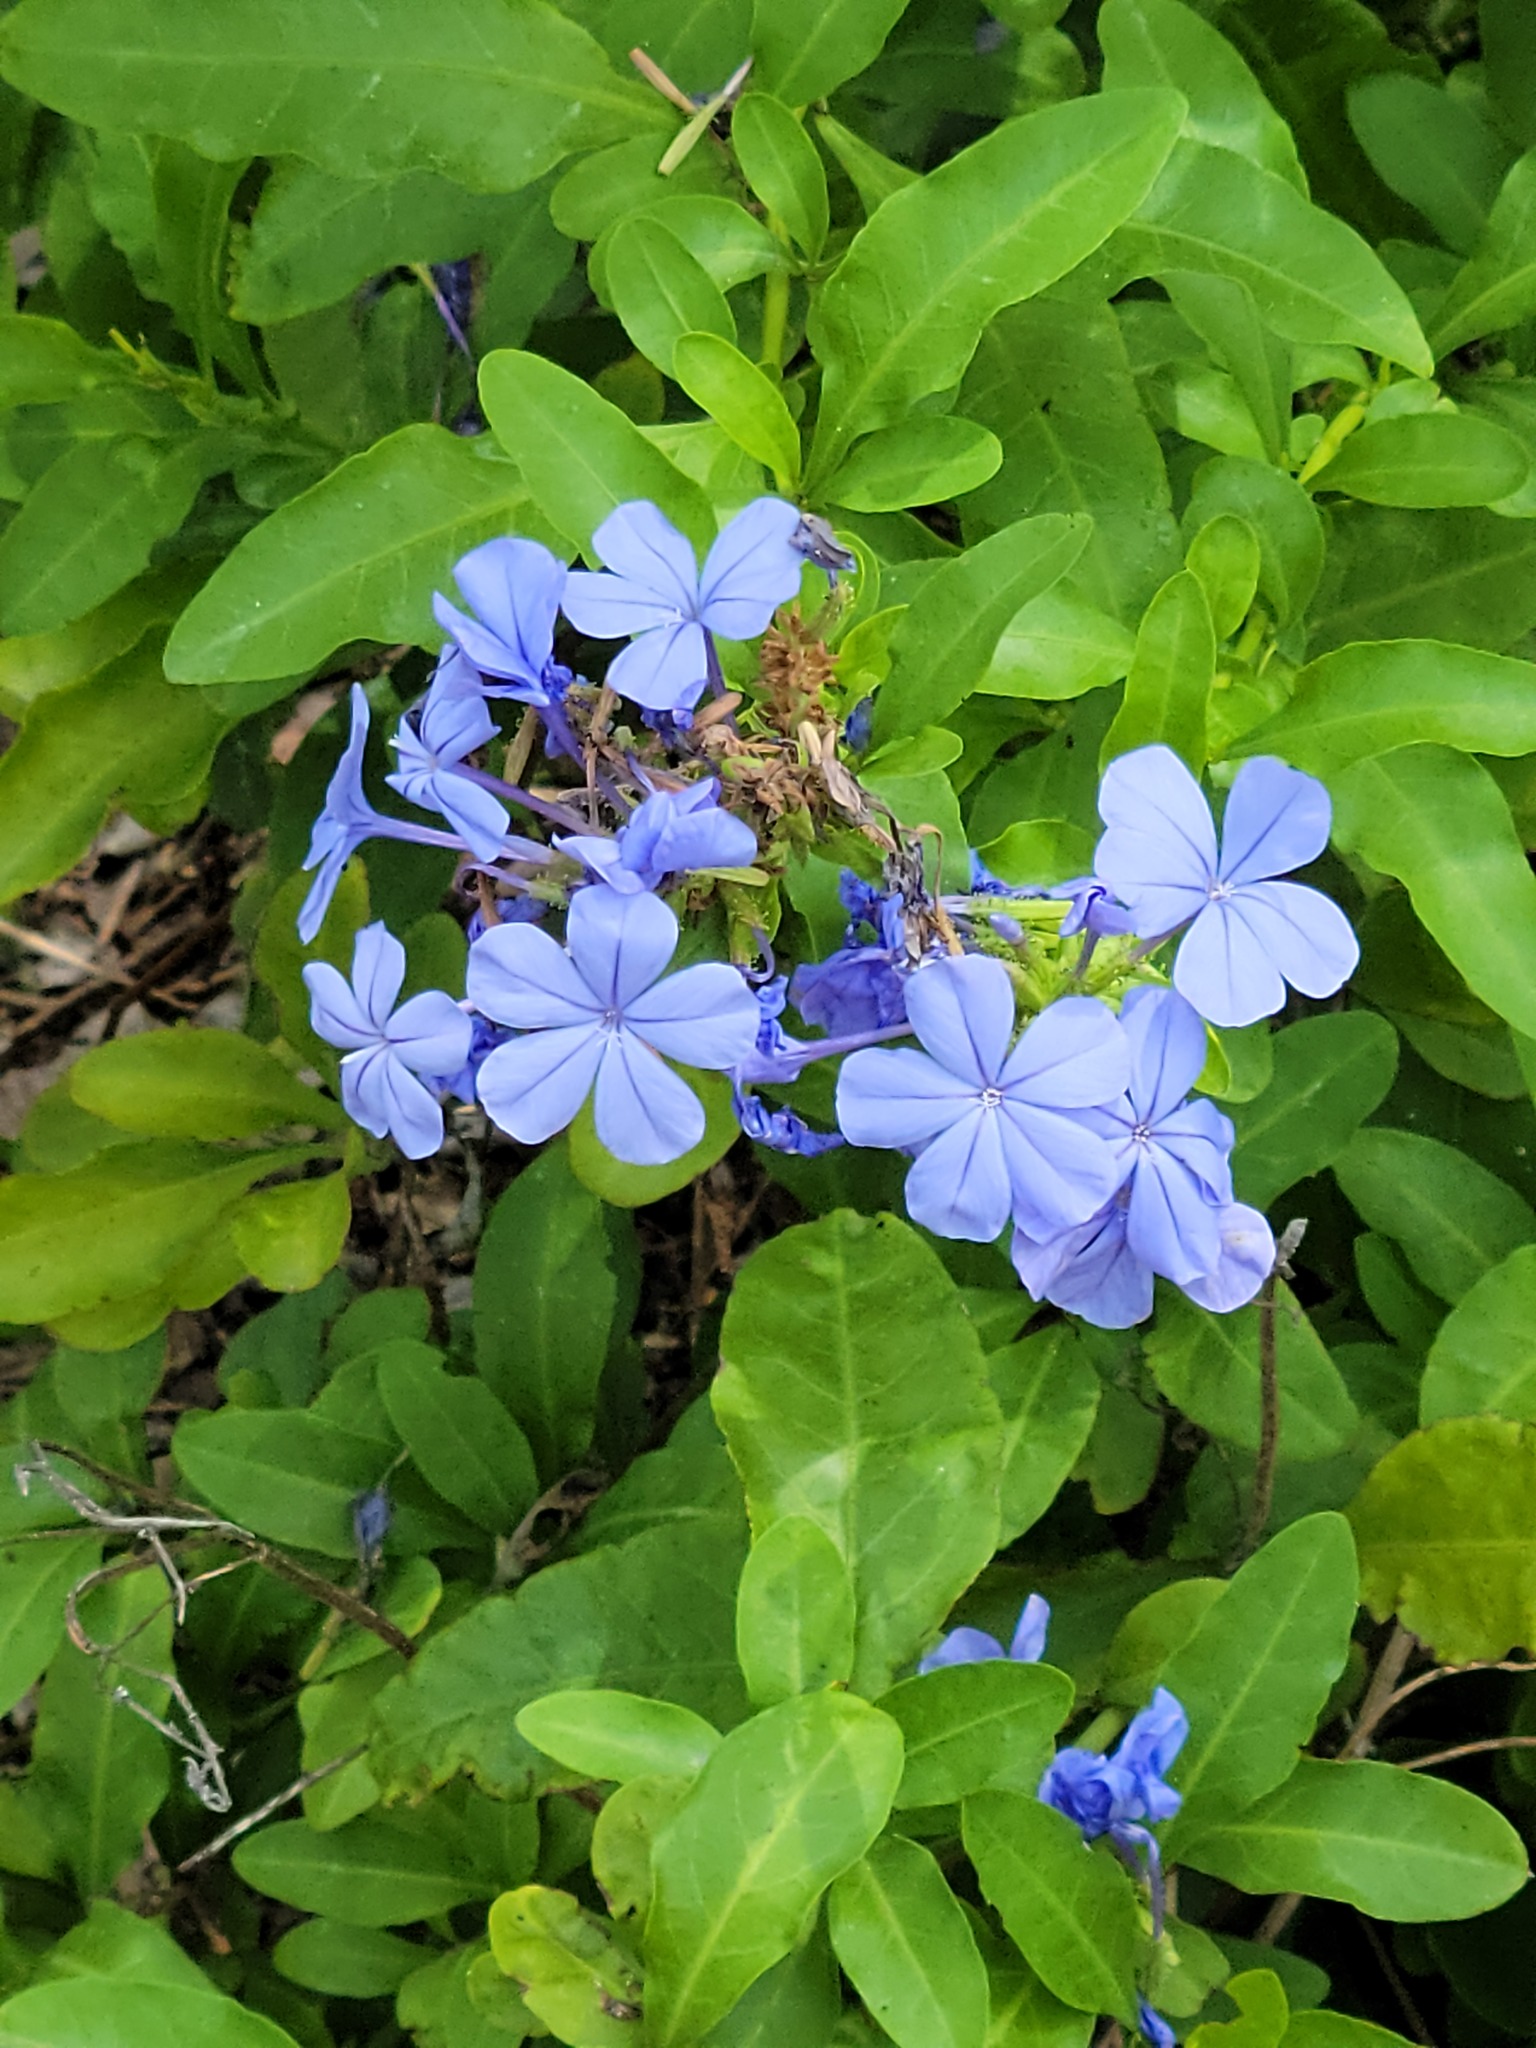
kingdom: Plantae
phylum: Tracheophyta
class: Magnoliopsida
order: Caryophyllales
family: Plumbaginaceae
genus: Plumbago
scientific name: Plumbago auriculata
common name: Cape leadwort
